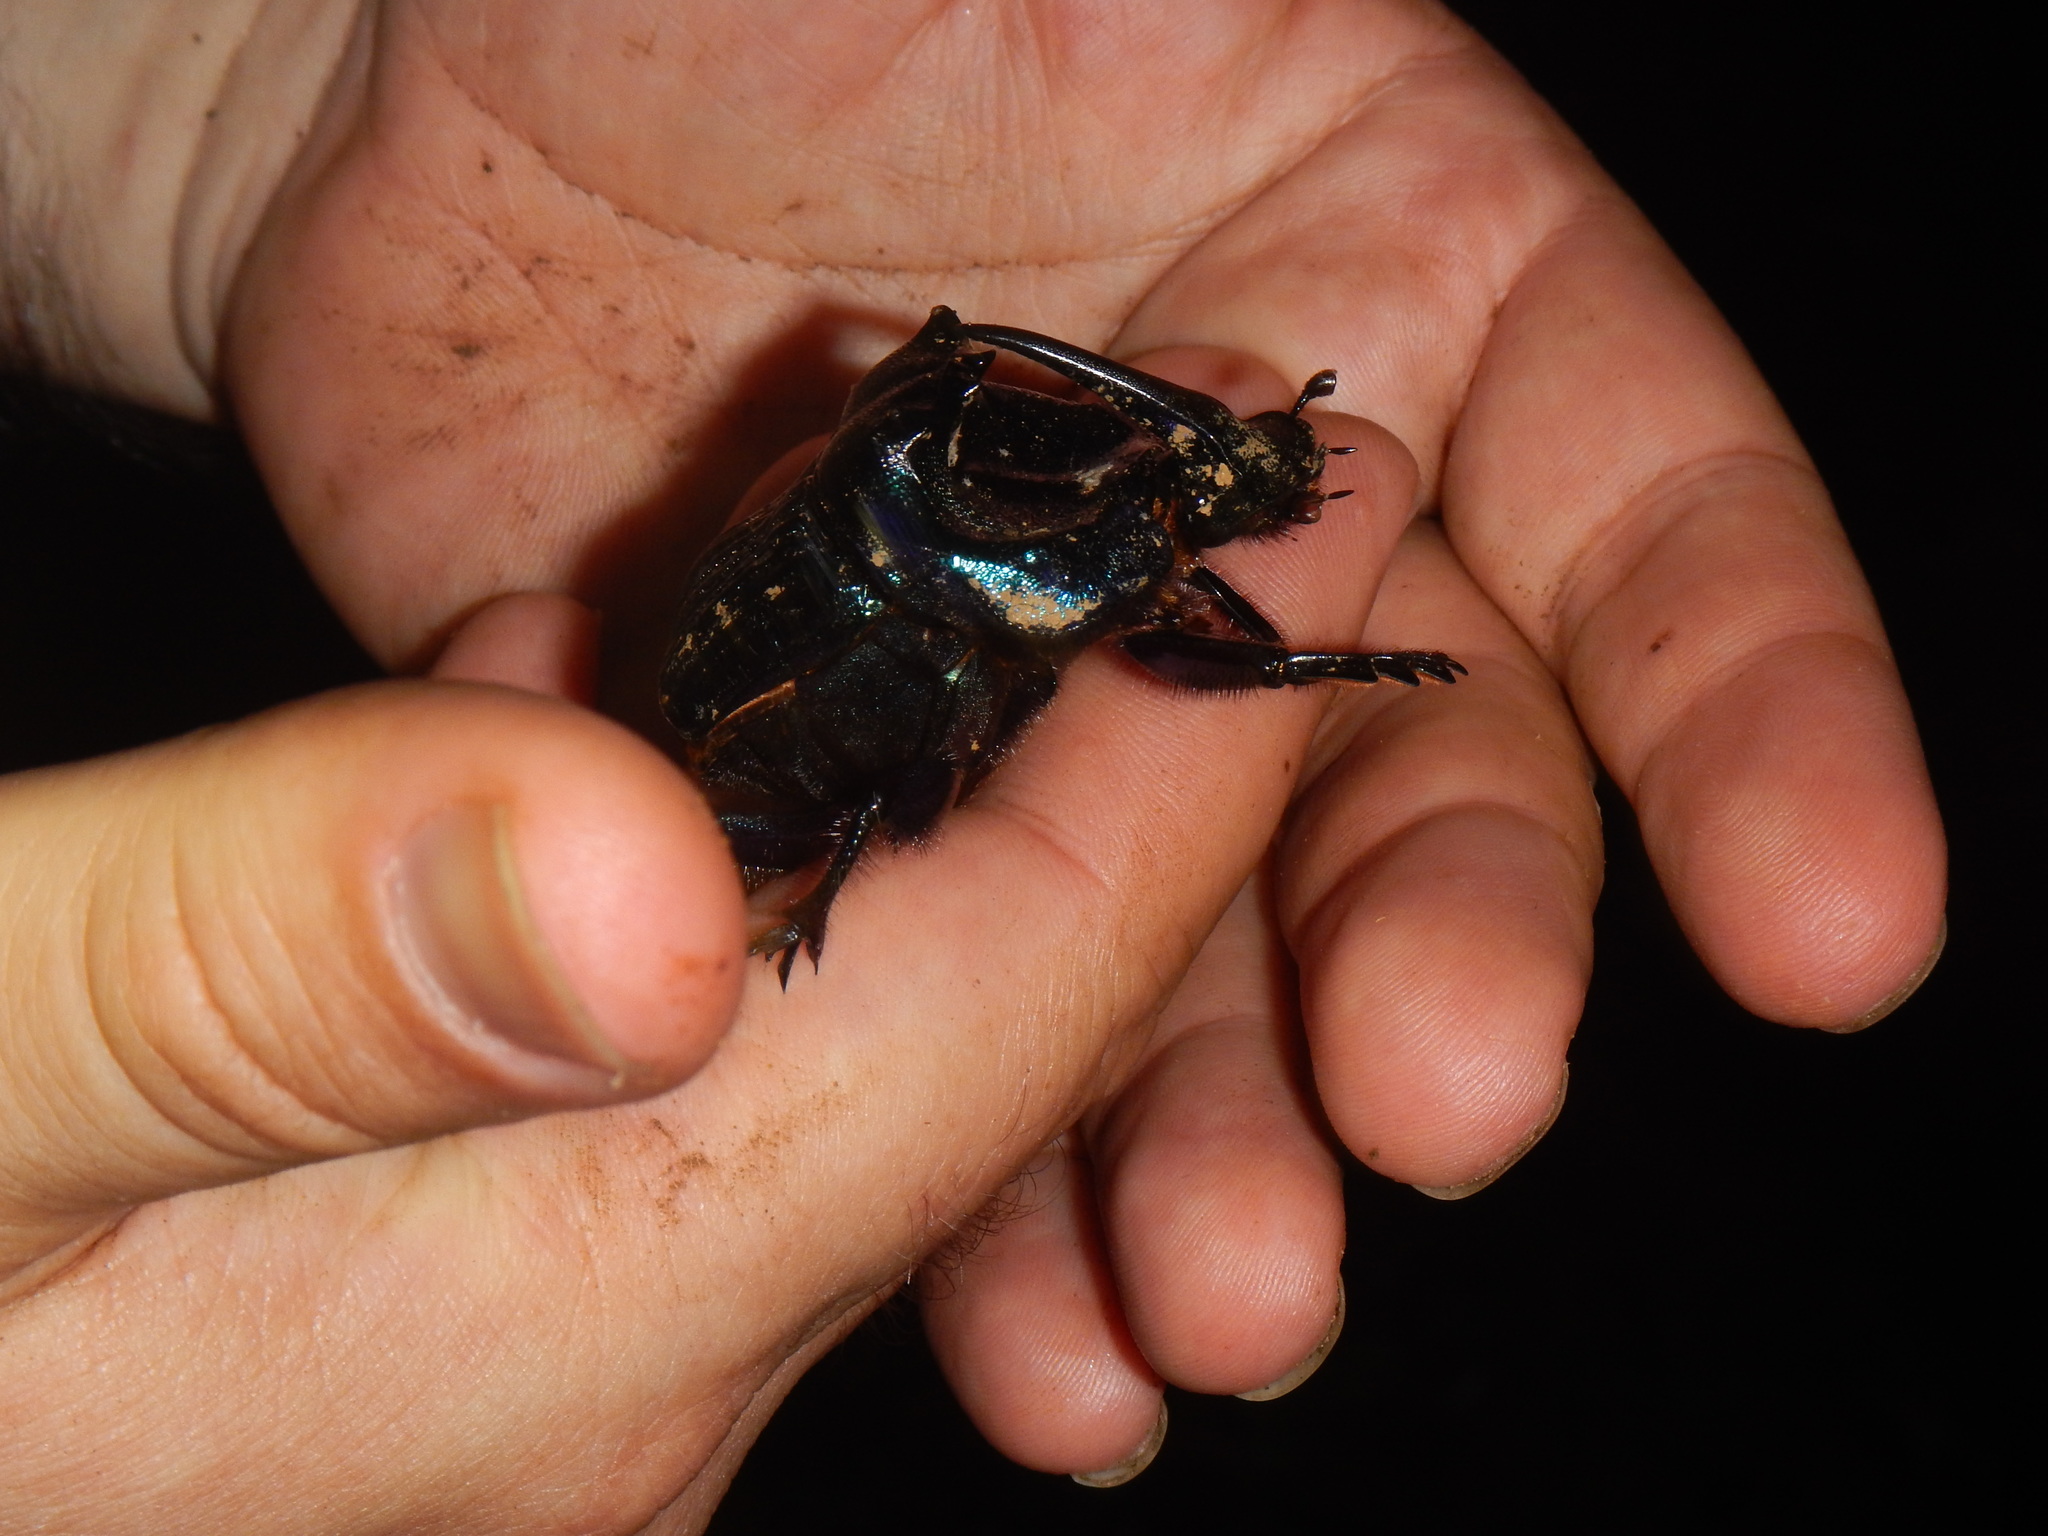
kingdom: Animalia
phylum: Arthropoda
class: Insecta
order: Coleoptera
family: Scarabaeidae
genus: Coprophanaeus
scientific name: Coprophanaeus lancifer
